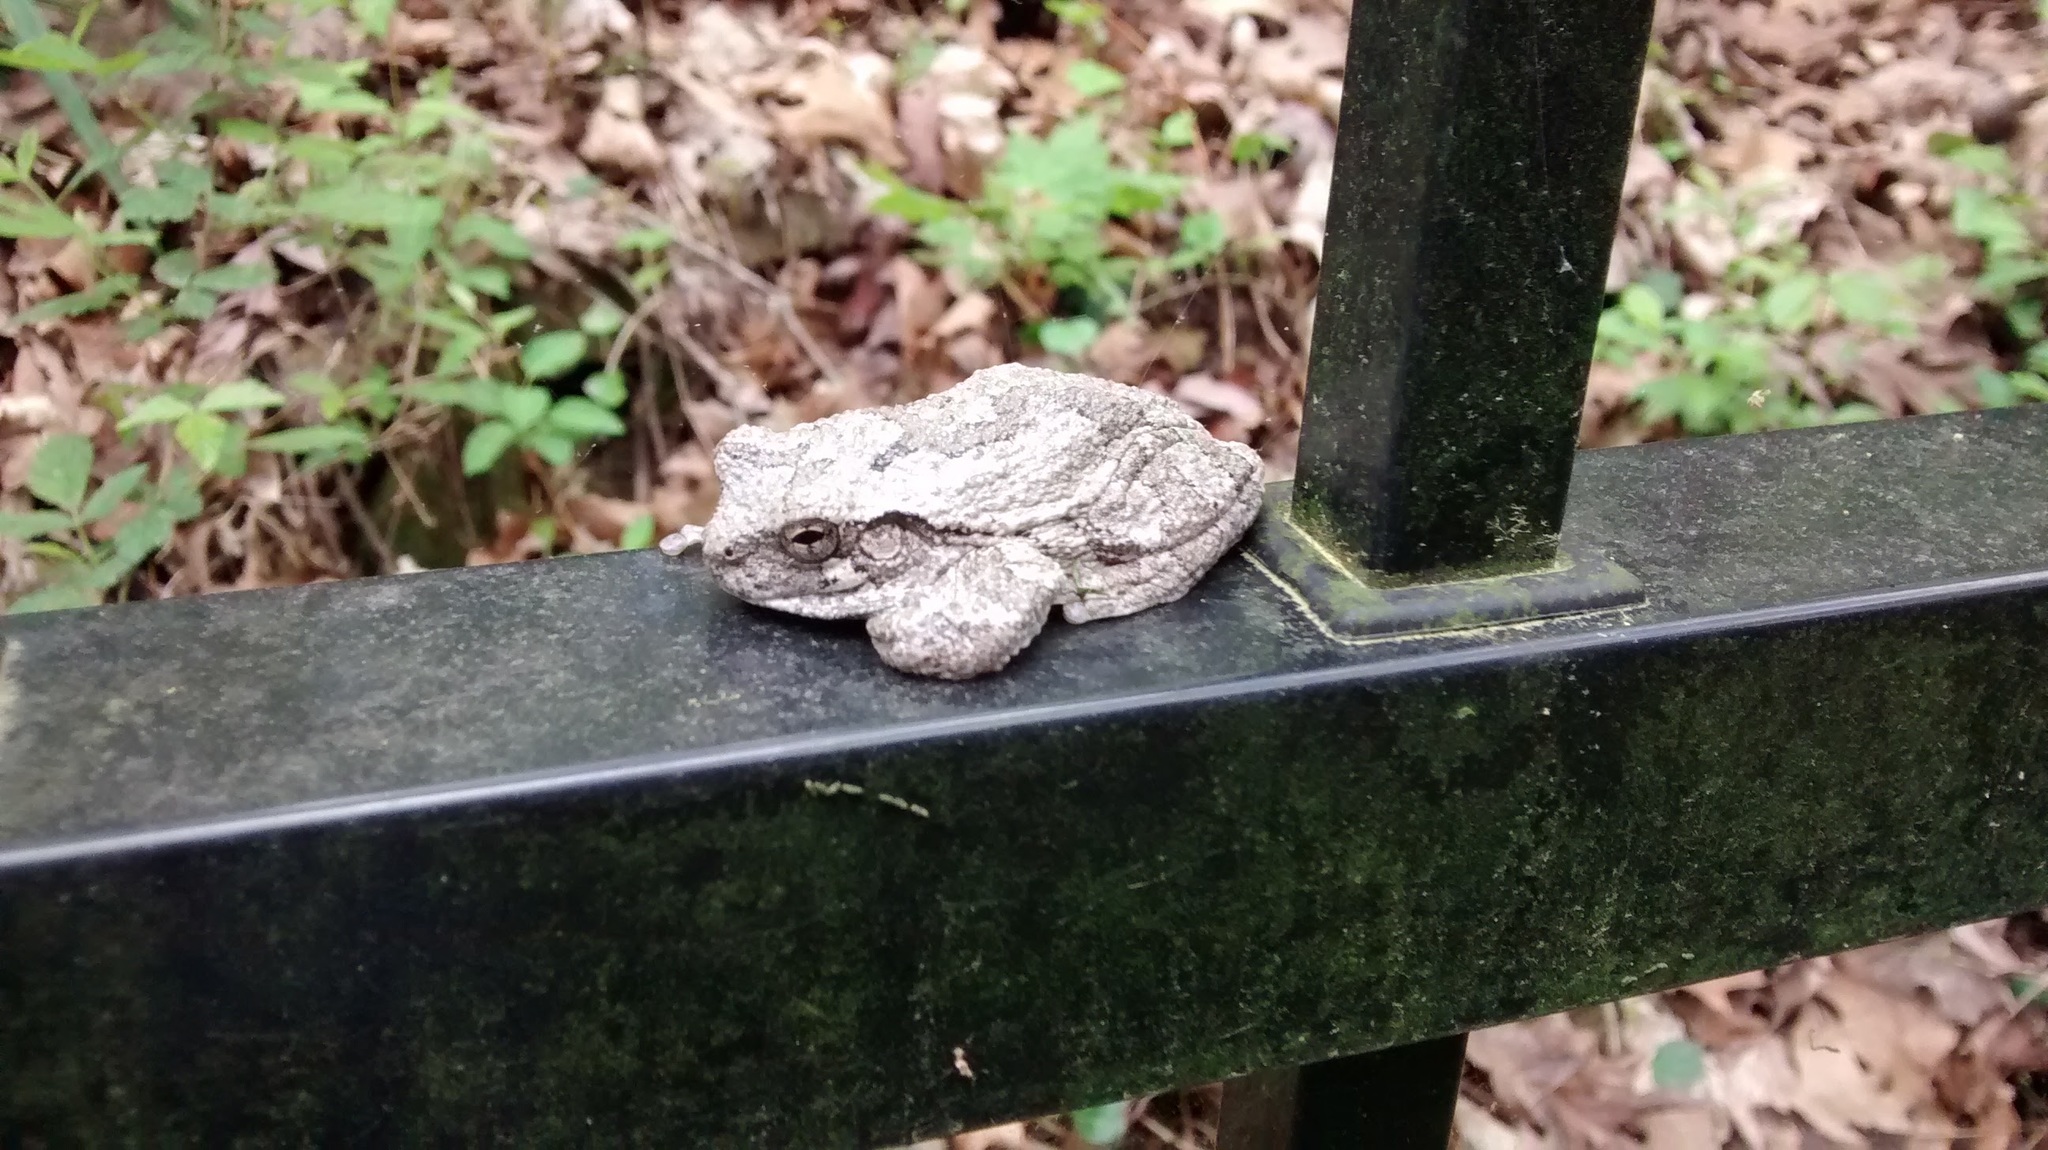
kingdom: Animalia
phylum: Chordata
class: Amphibia
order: Anura
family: Hylidae
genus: Hyla
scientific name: Hyla
